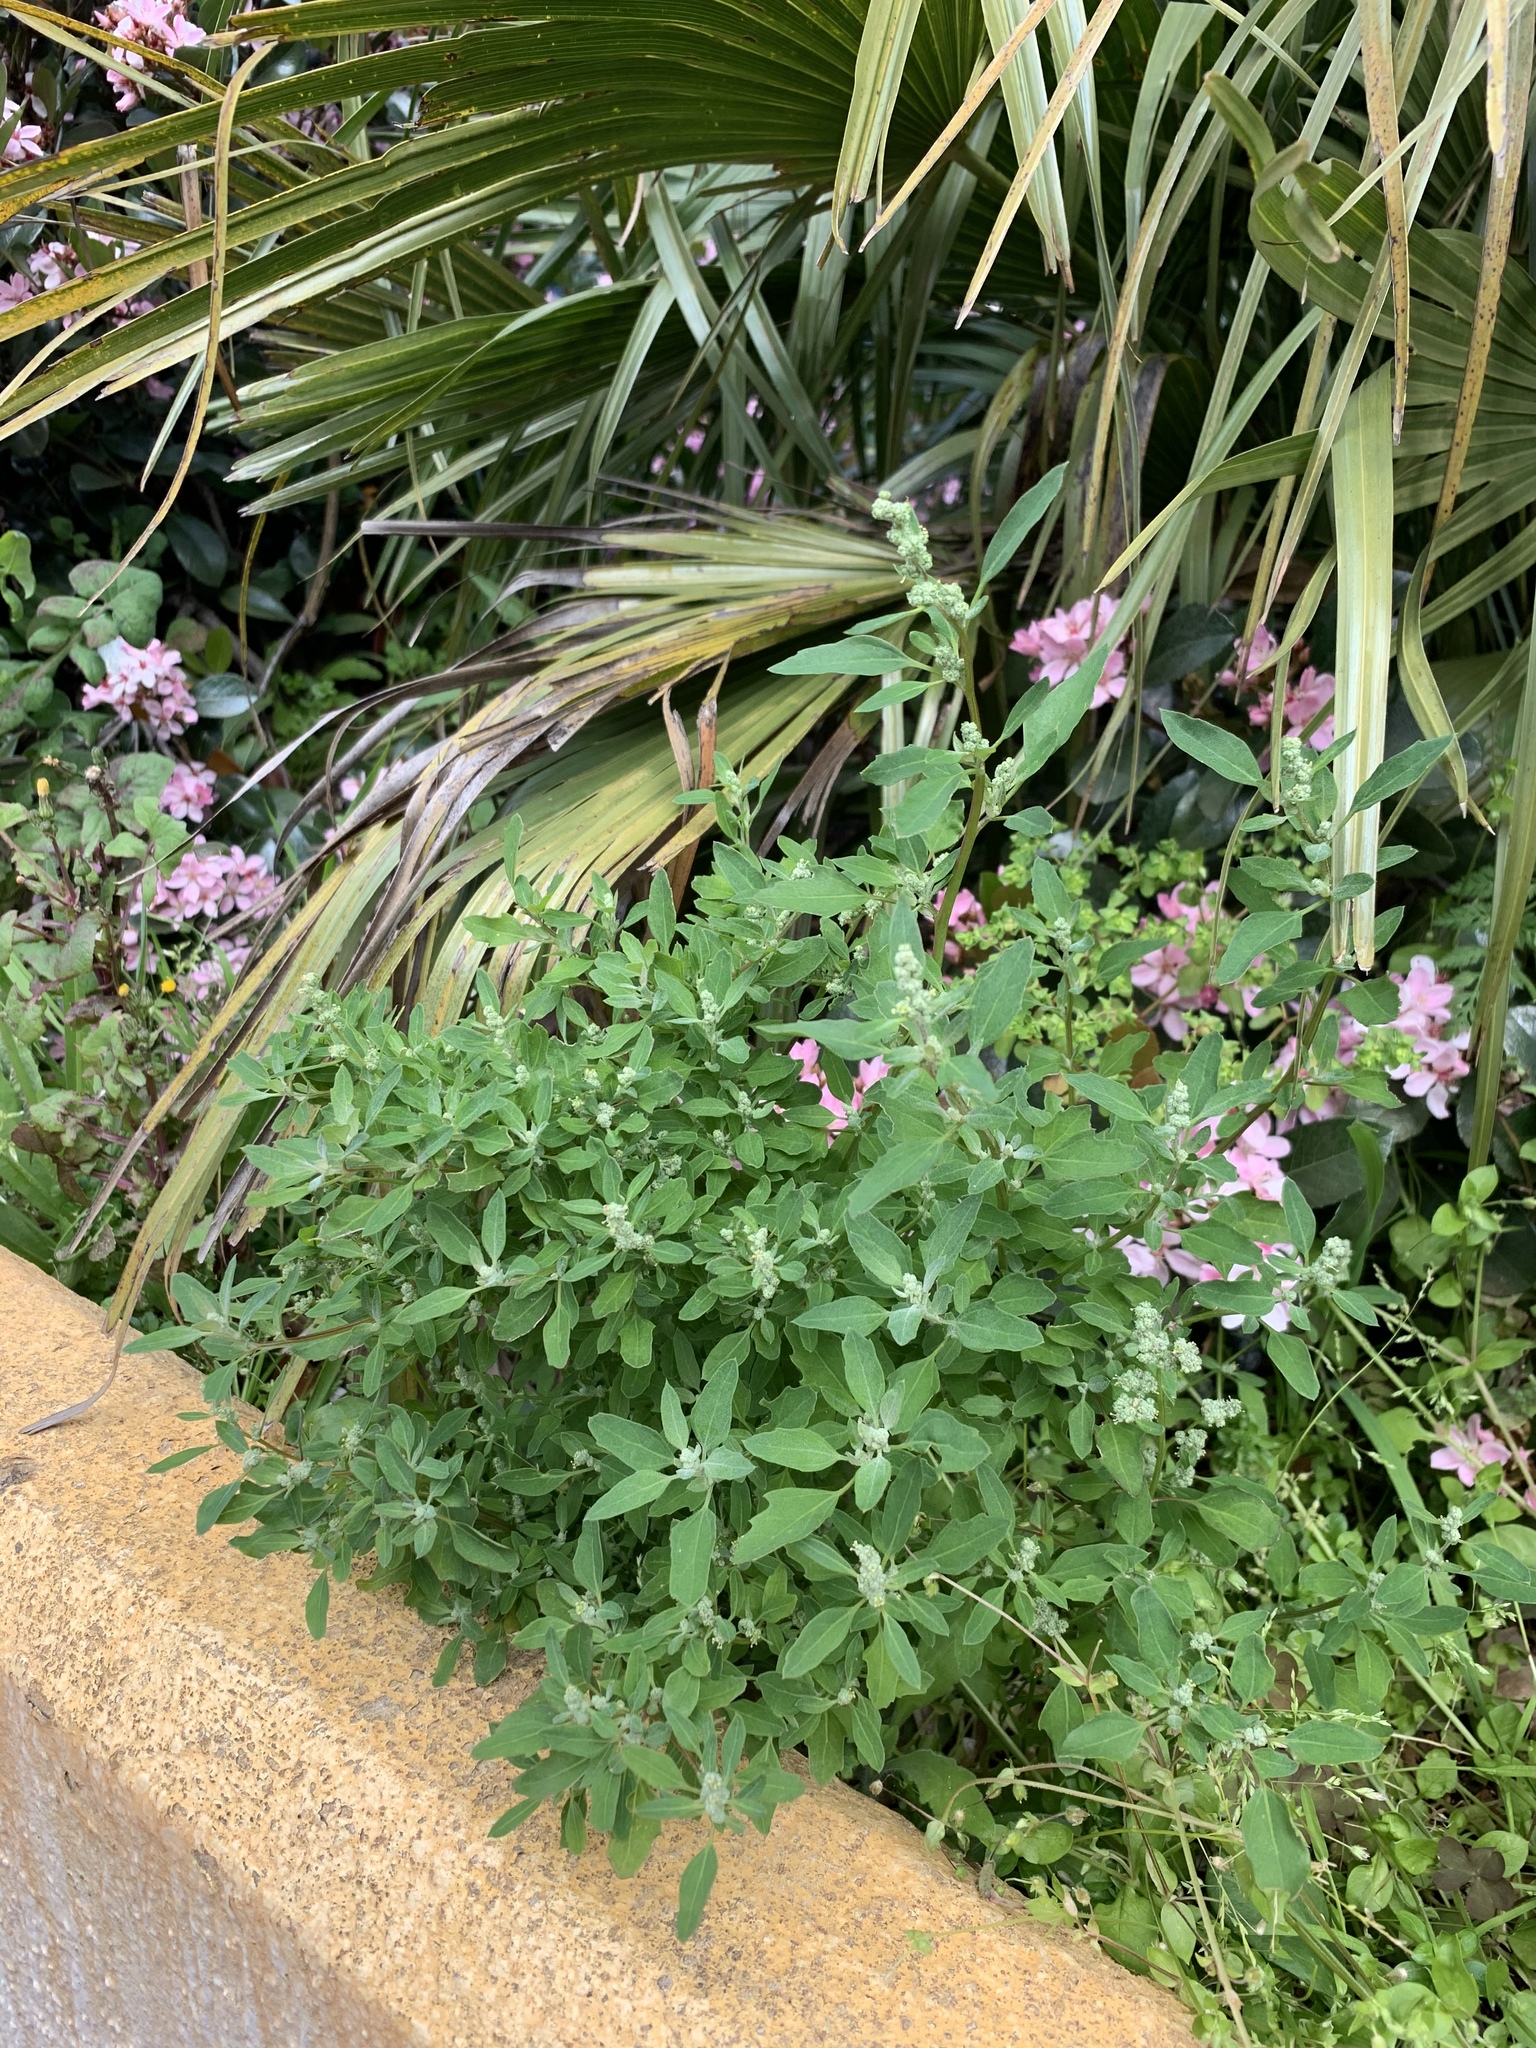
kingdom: Plantae
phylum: Tracheophyta
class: Magnoliopsida
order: Caryophyllales
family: Amaranthaceae
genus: Chenopodium
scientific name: Chenopodium album
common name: Fat-hen
